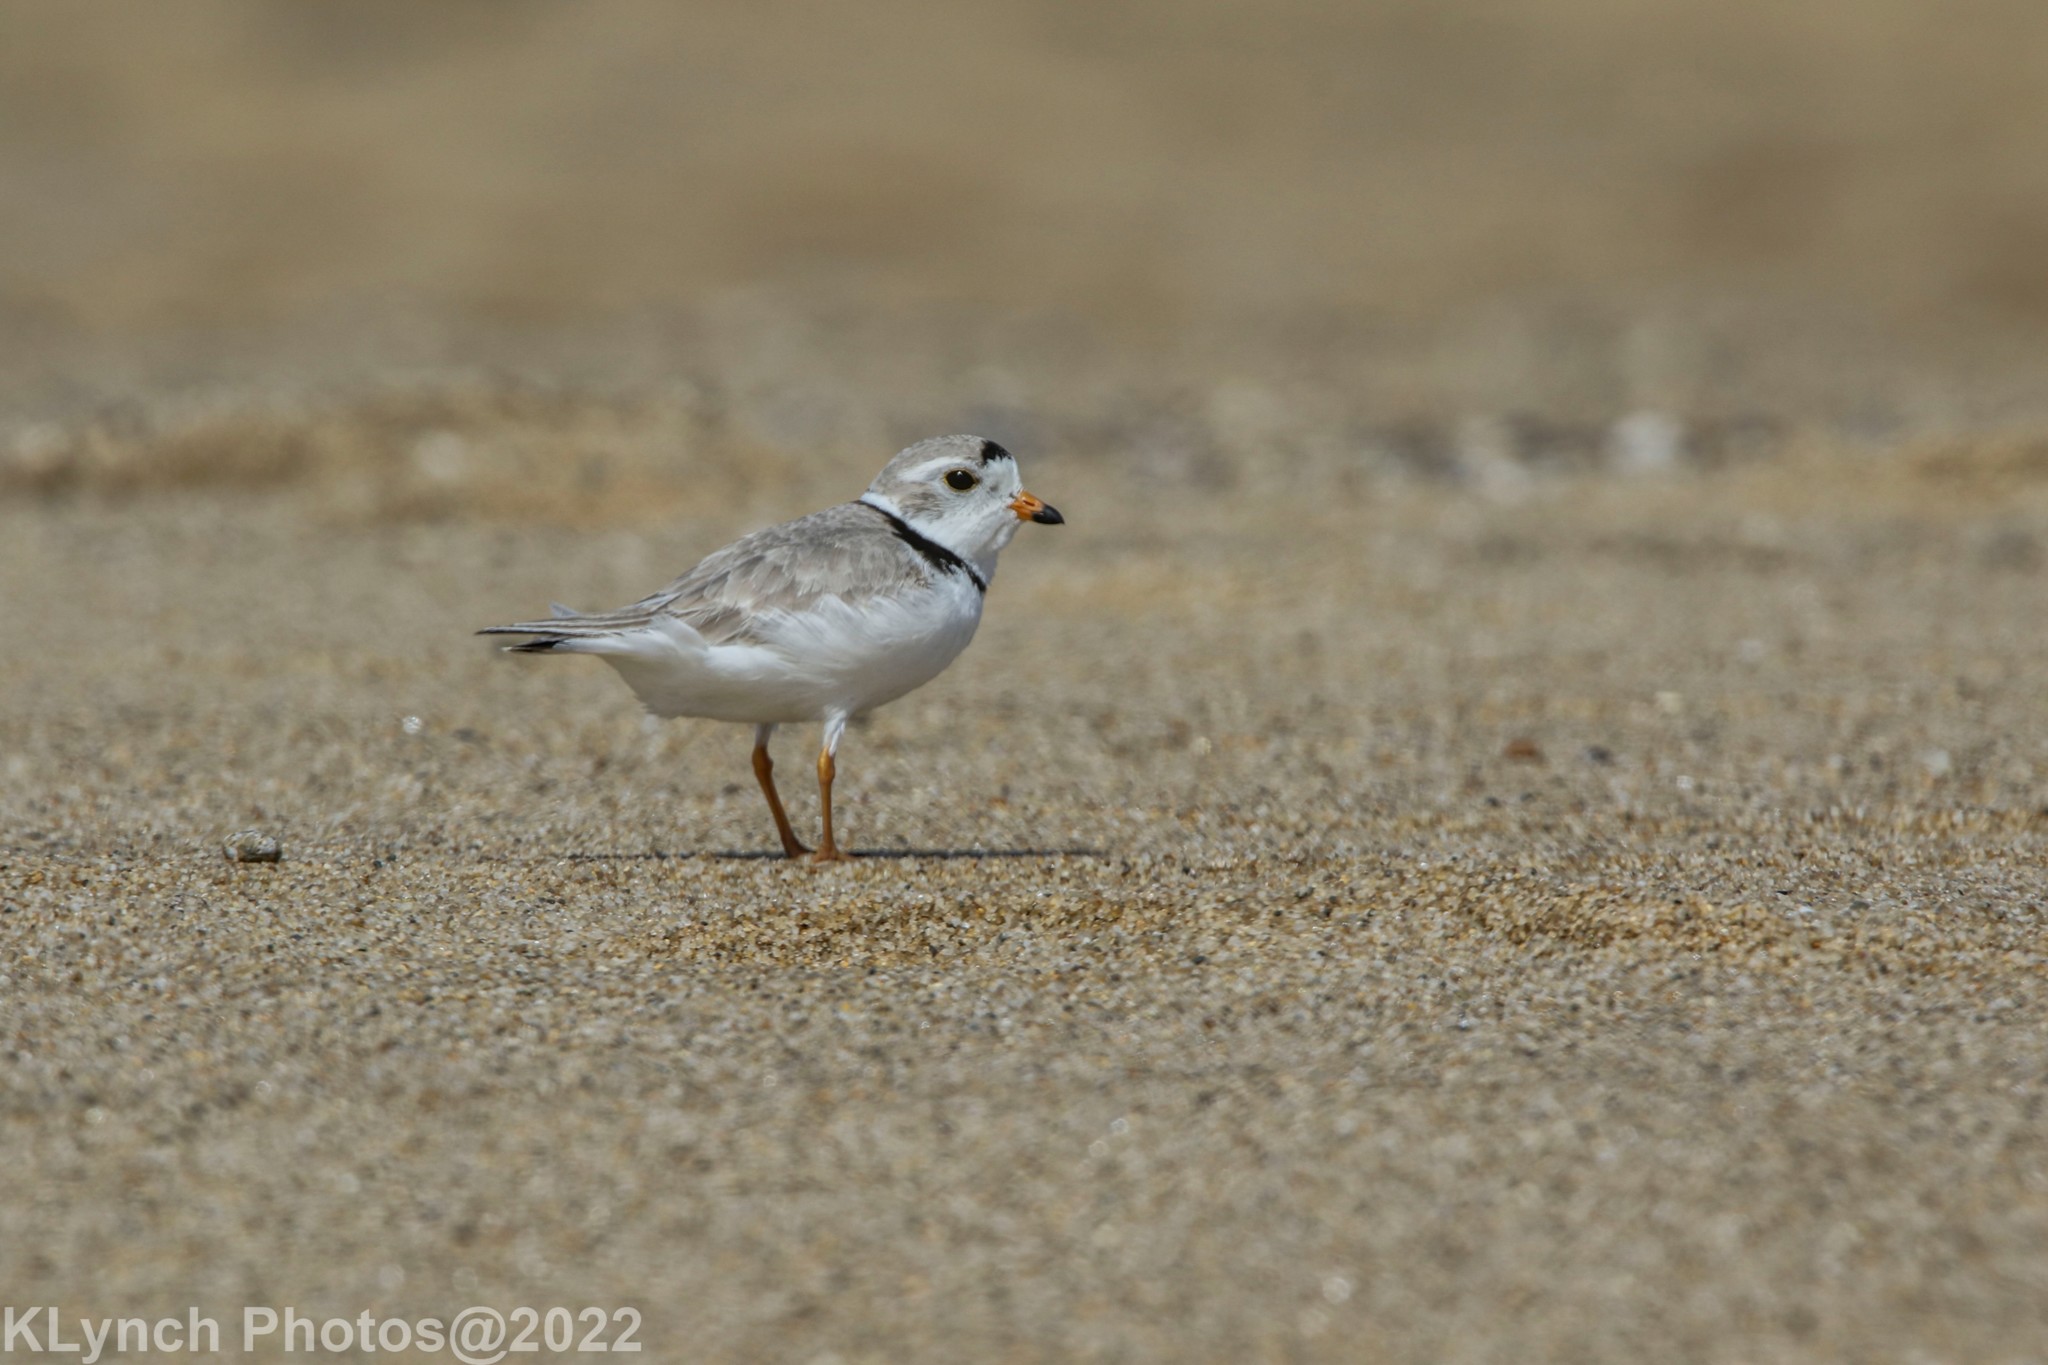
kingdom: Animalia
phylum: Chordata
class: Aves
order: Charadriiformes
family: Charadriidae
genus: Charadrius
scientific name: Charadrius melodus
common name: Piping plover
